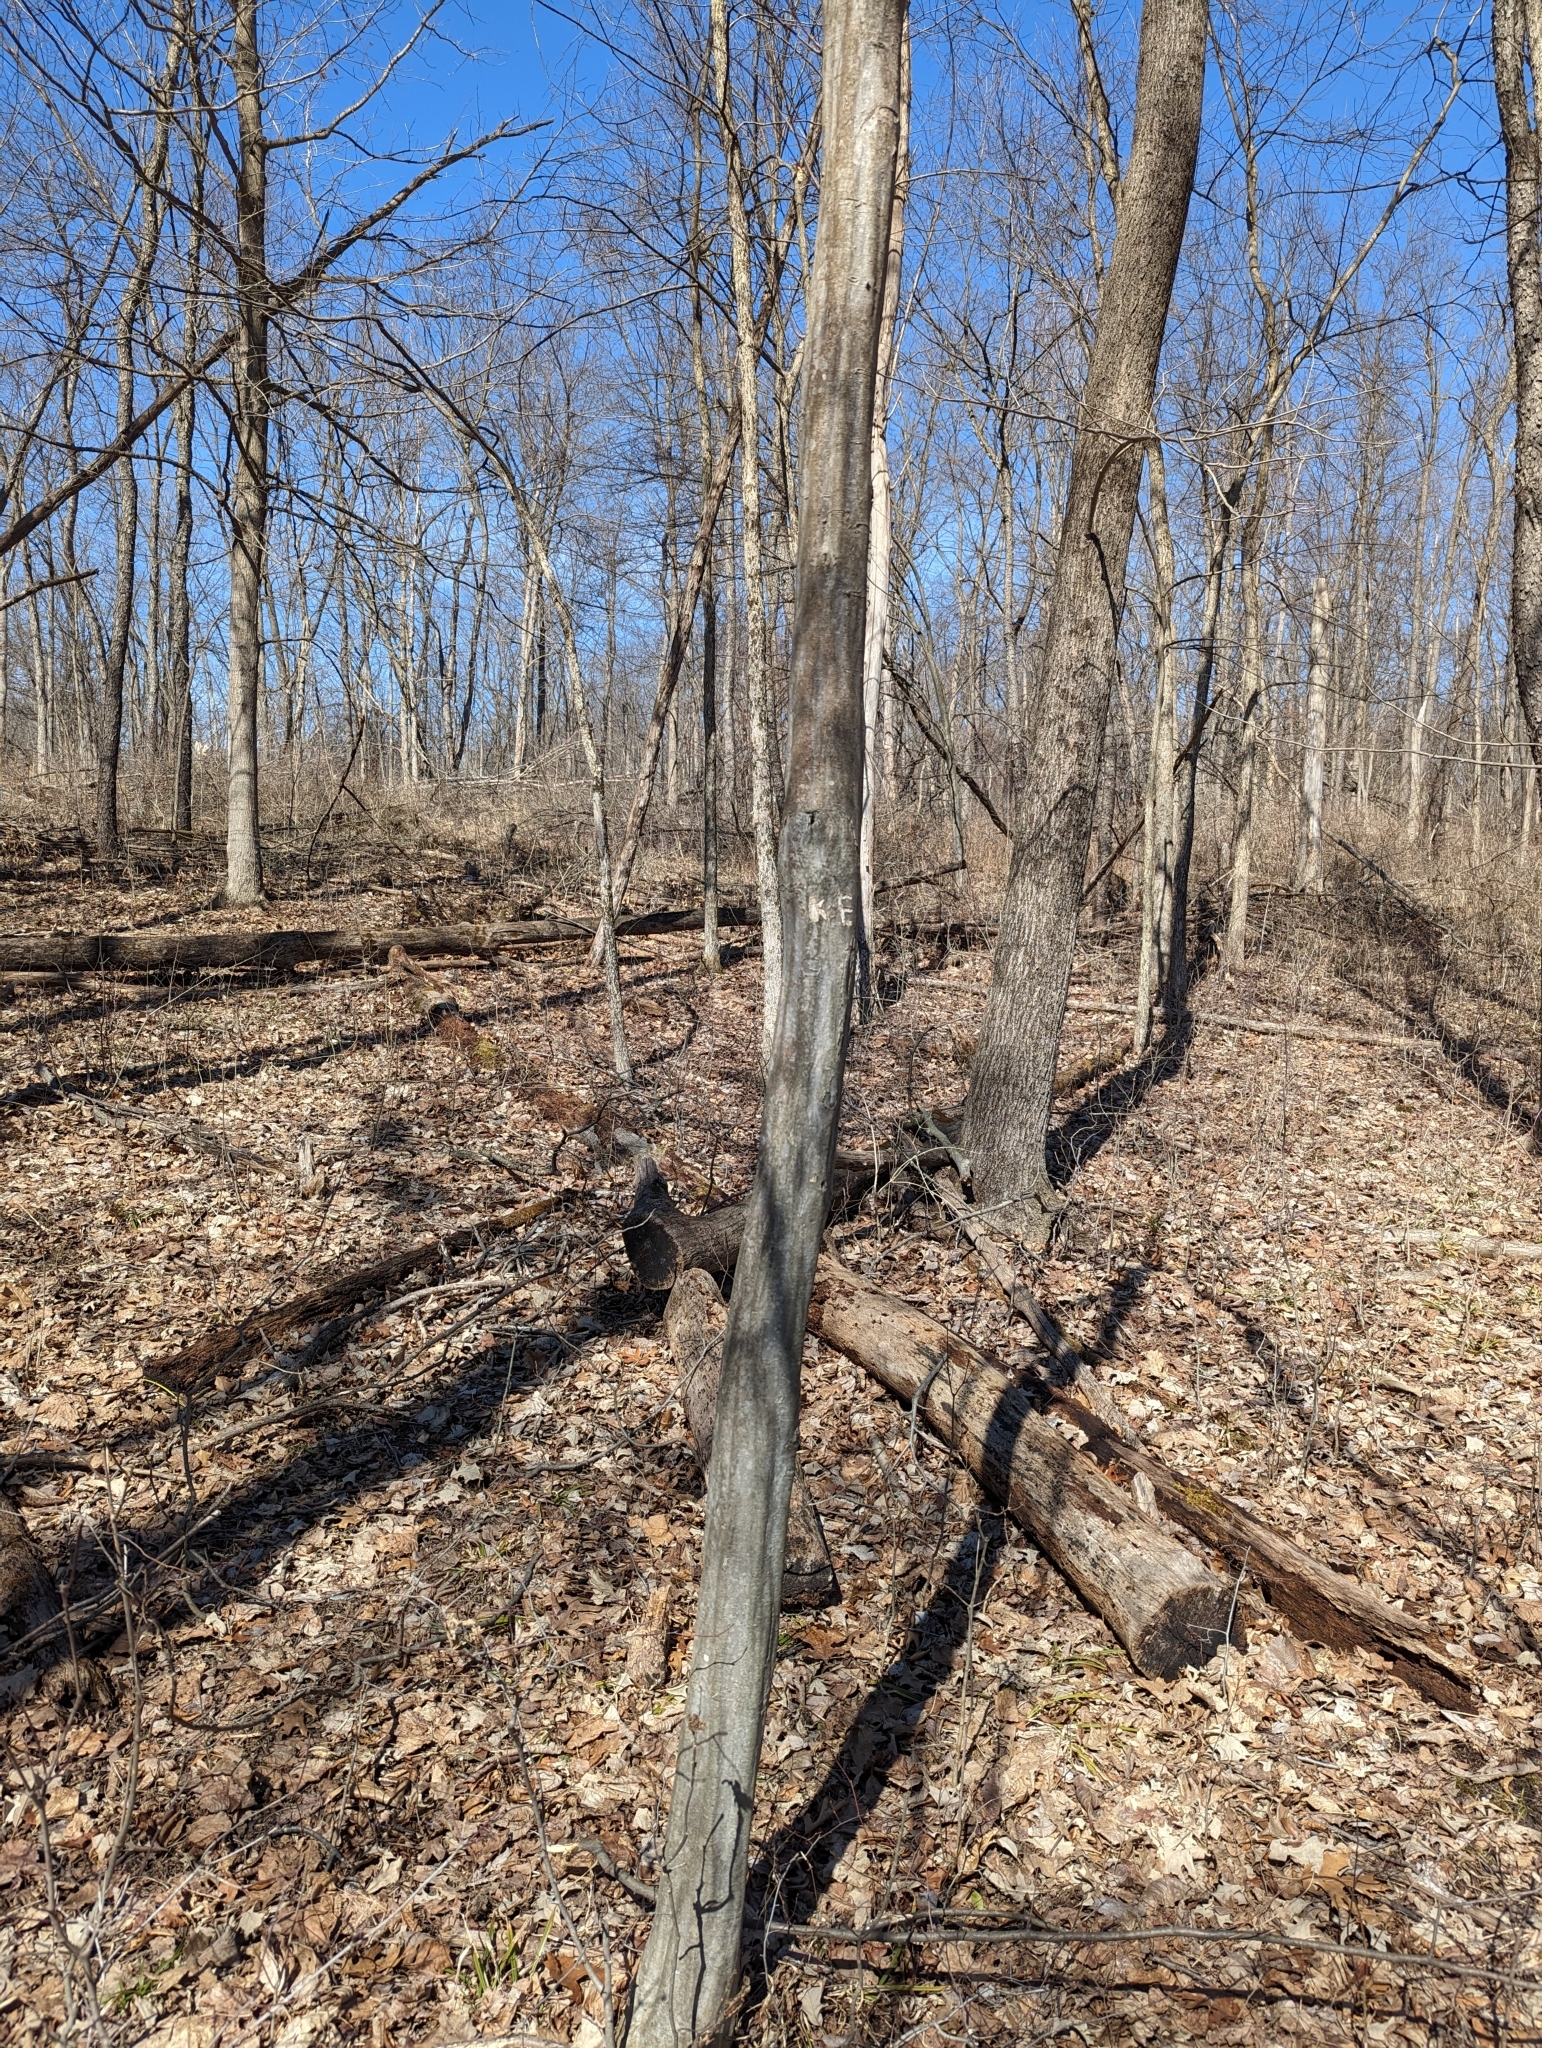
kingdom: Plantae
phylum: Tracheophyta
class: Magnoliopsida
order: Fagales
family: Betulaceae
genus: Carpinus
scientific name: Carpinus caroliniana
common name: American hornbeam
